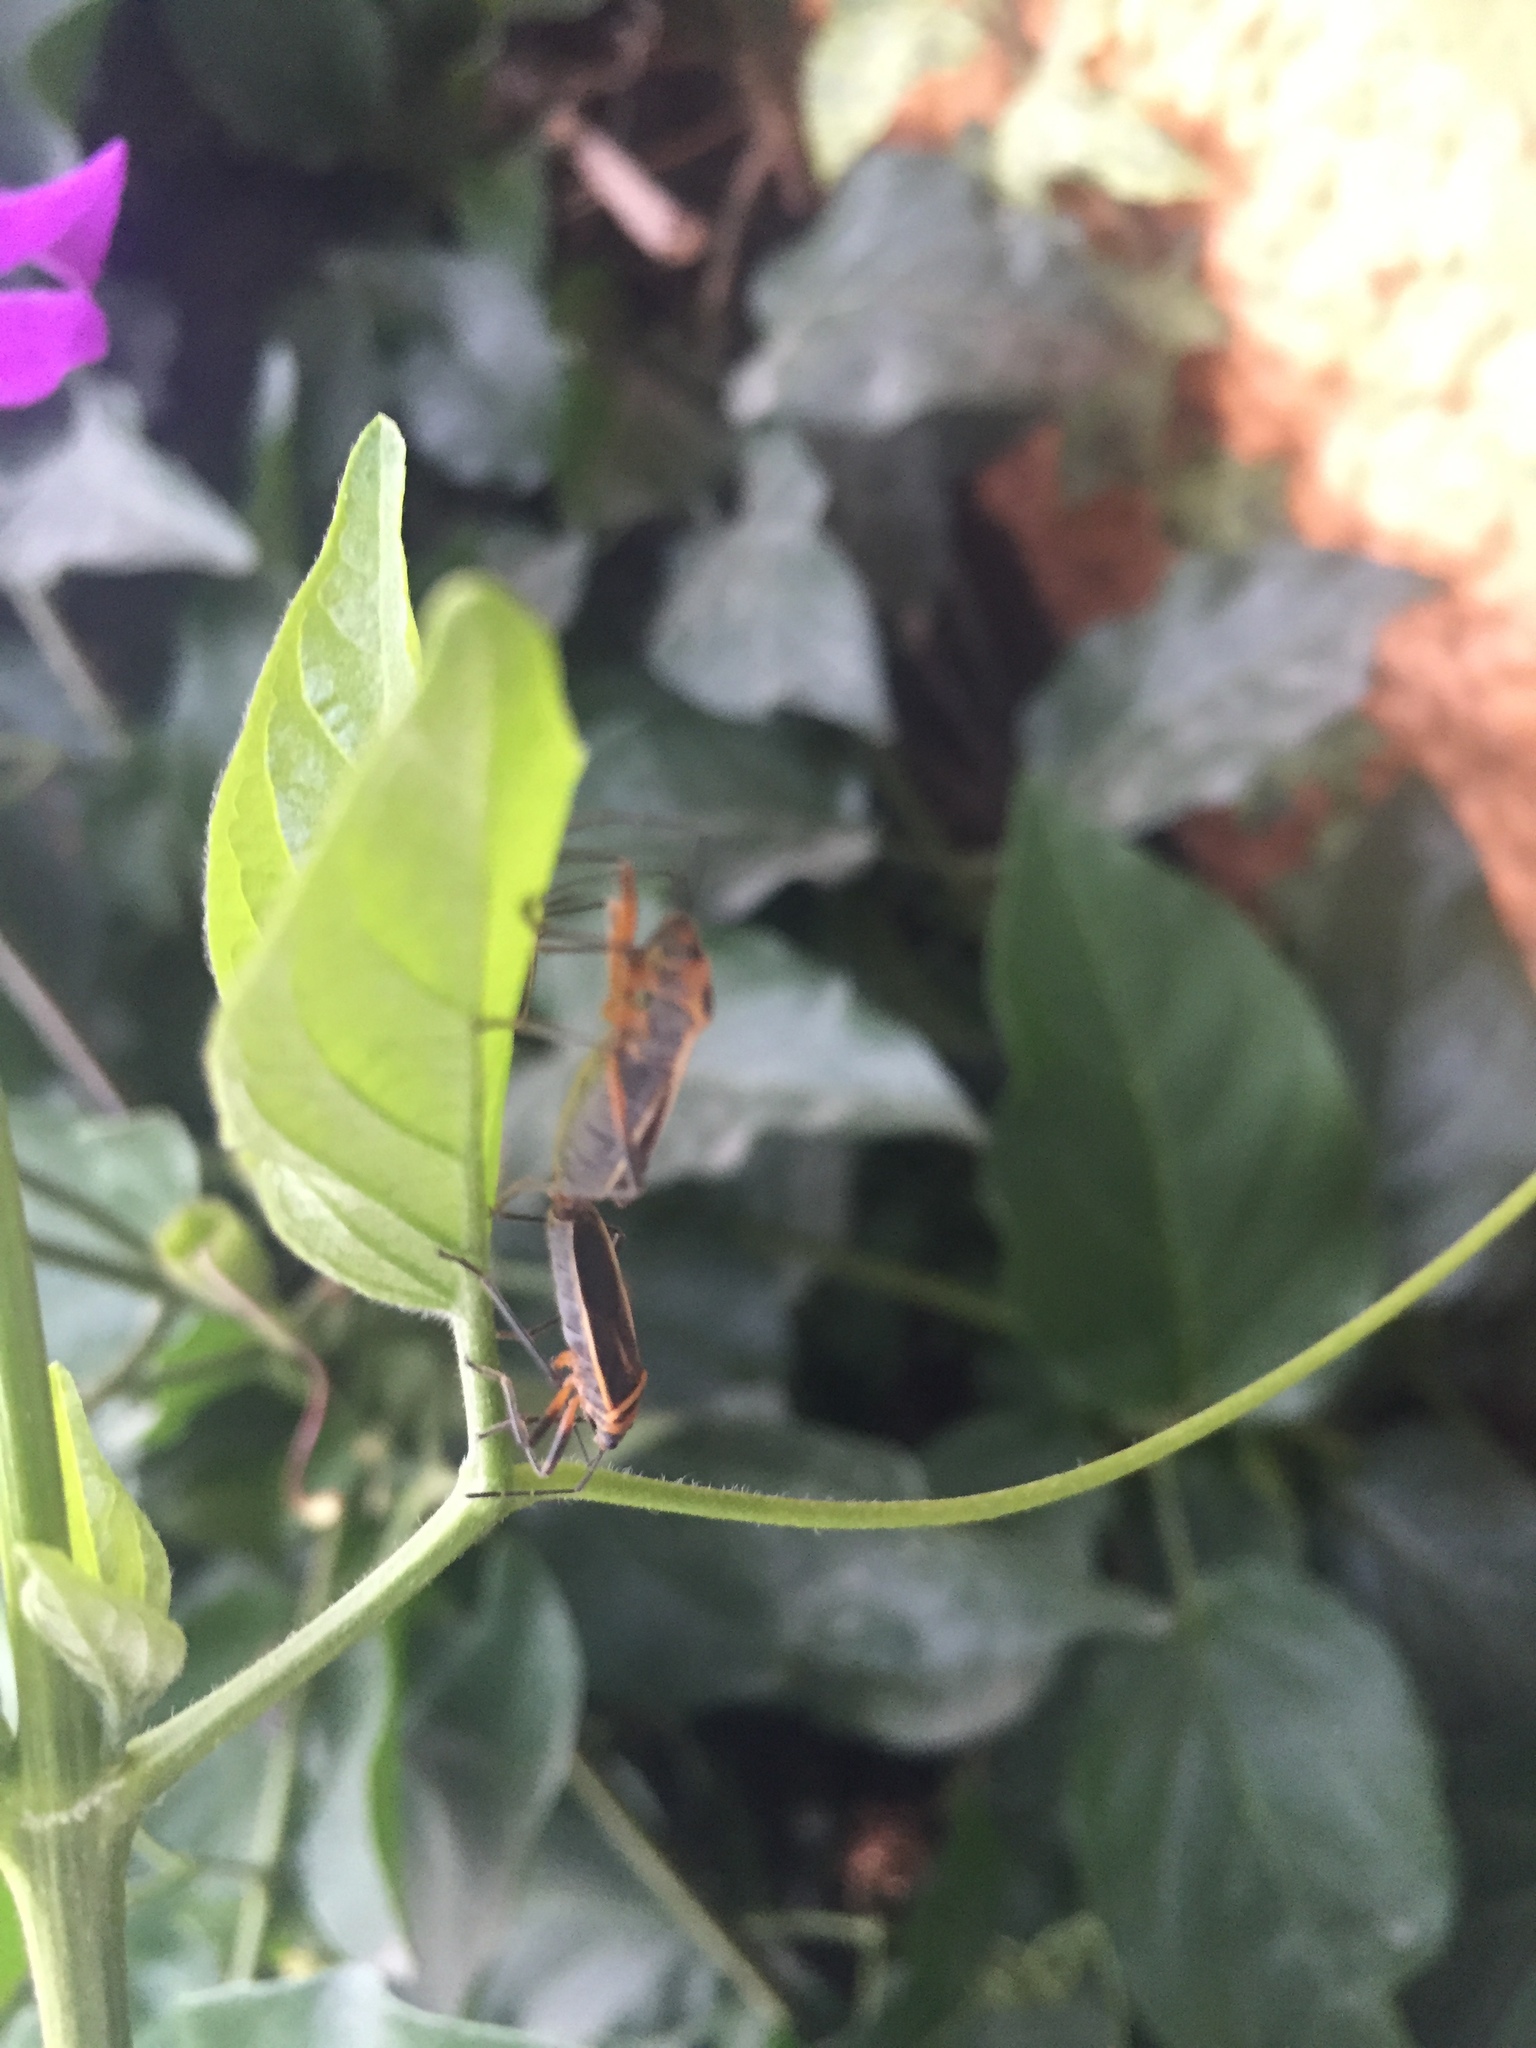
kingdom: Animalia
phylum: Arthropoda
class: Insecta
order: Hemiptera
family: Largidae
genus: Stenomacra
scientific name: Stenomacra marginella
